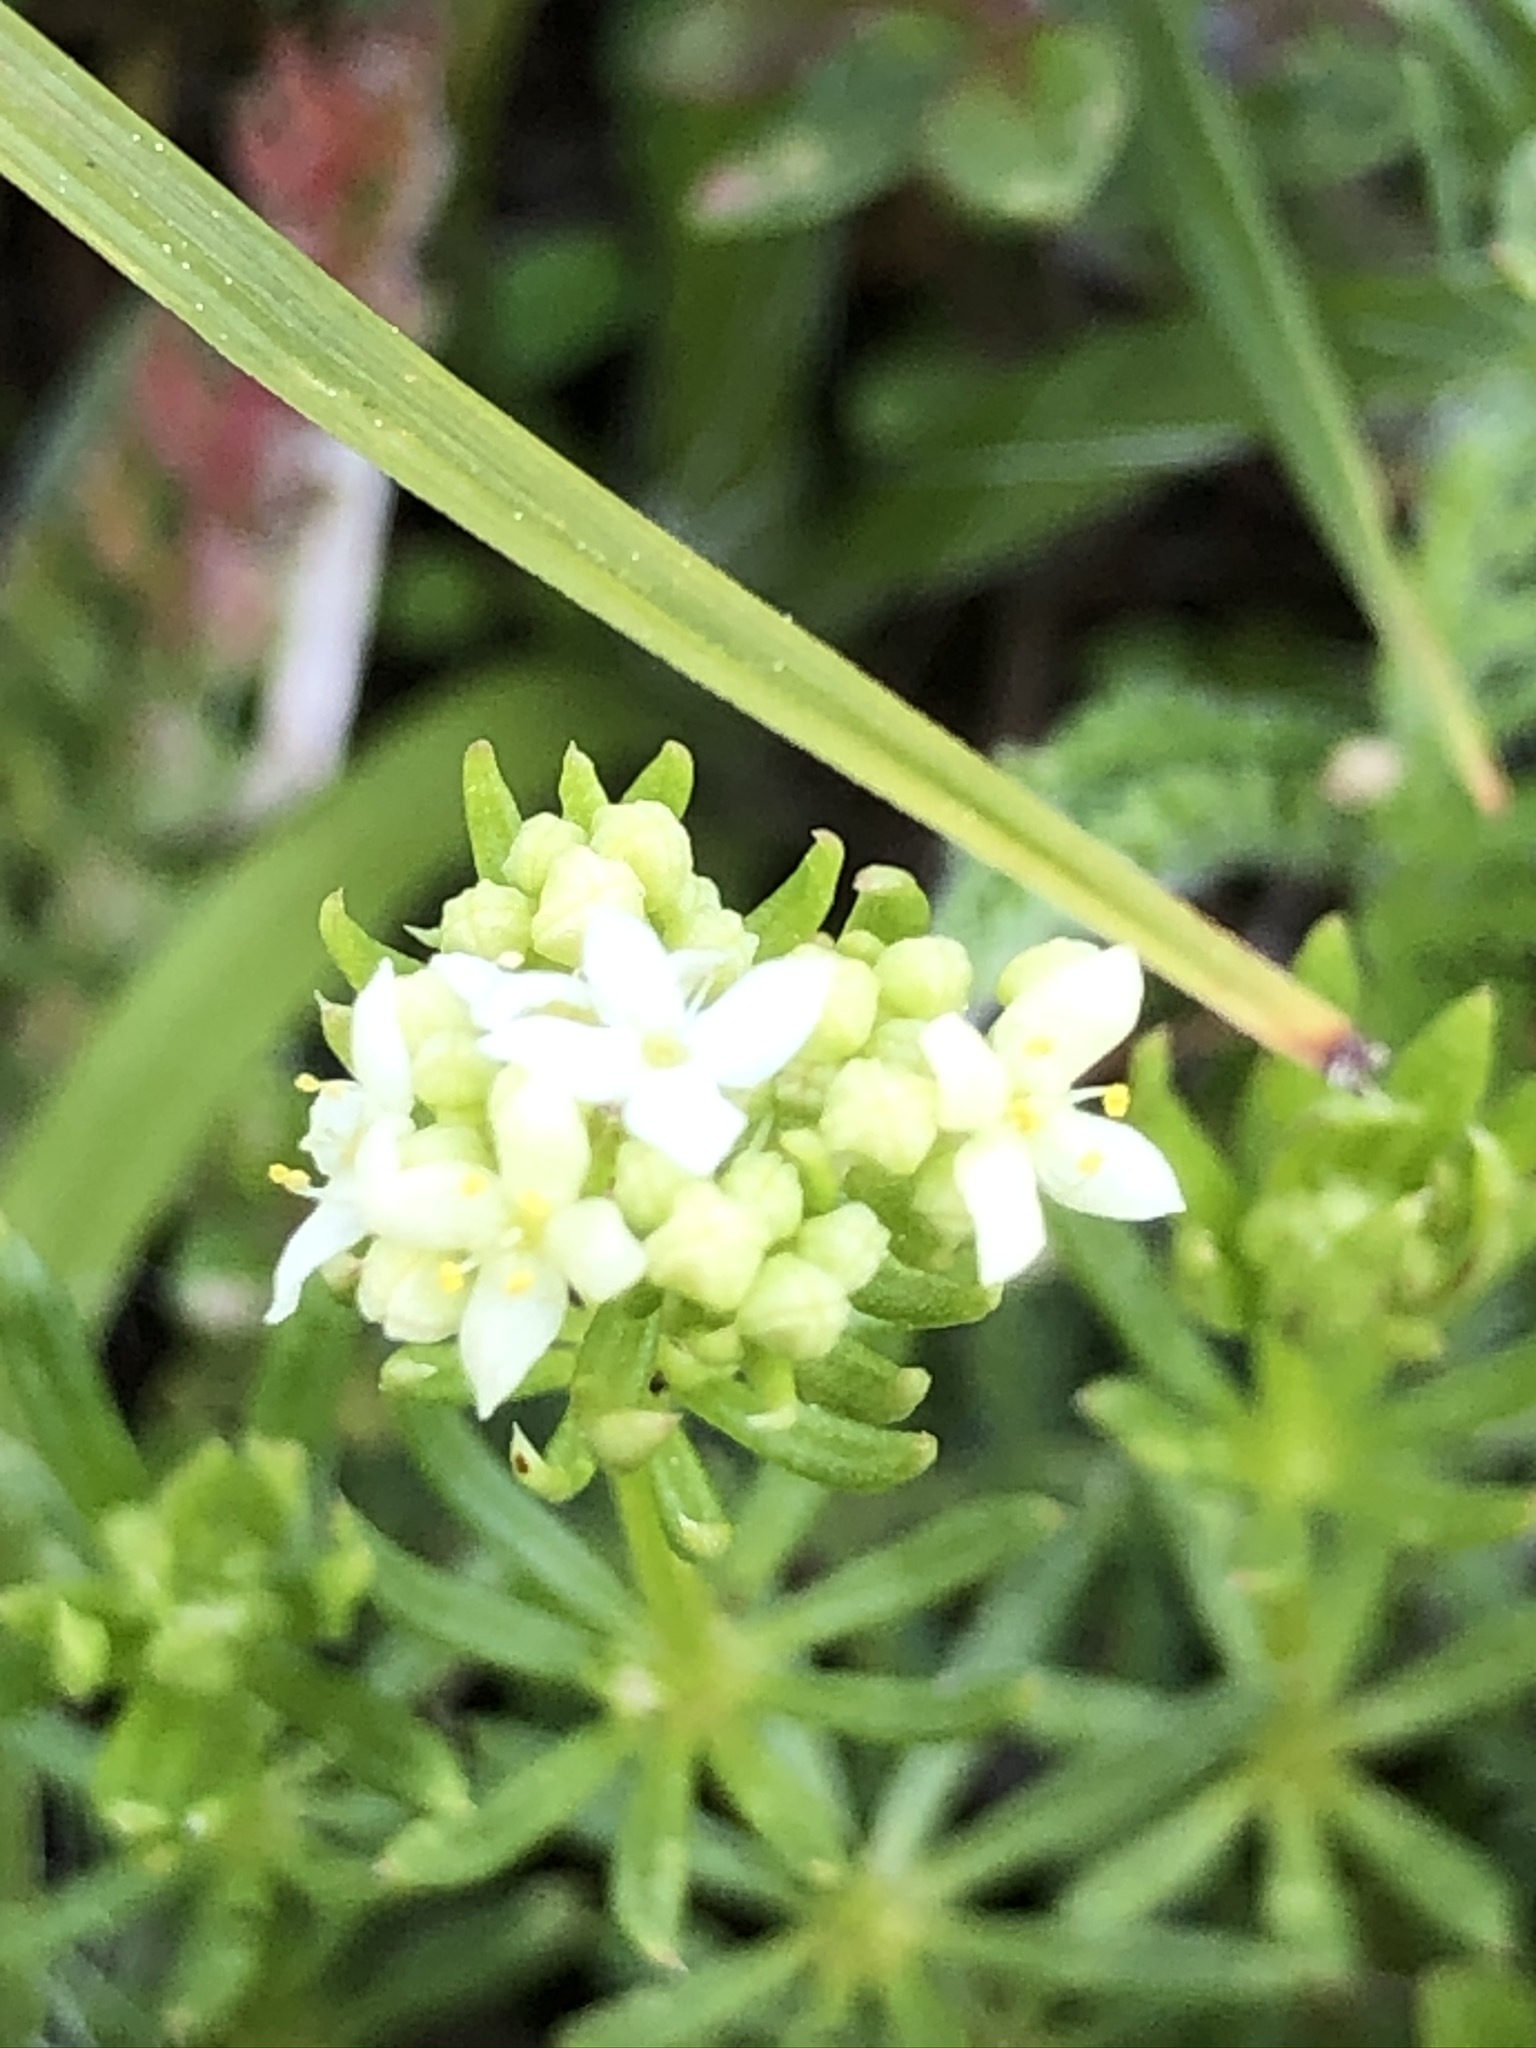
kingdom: Plantae
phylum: Tracheophyta
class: Magnoliopsida
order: Gentianales
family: Rubiaceae
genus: Galium
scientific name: Galium anisophyllon
